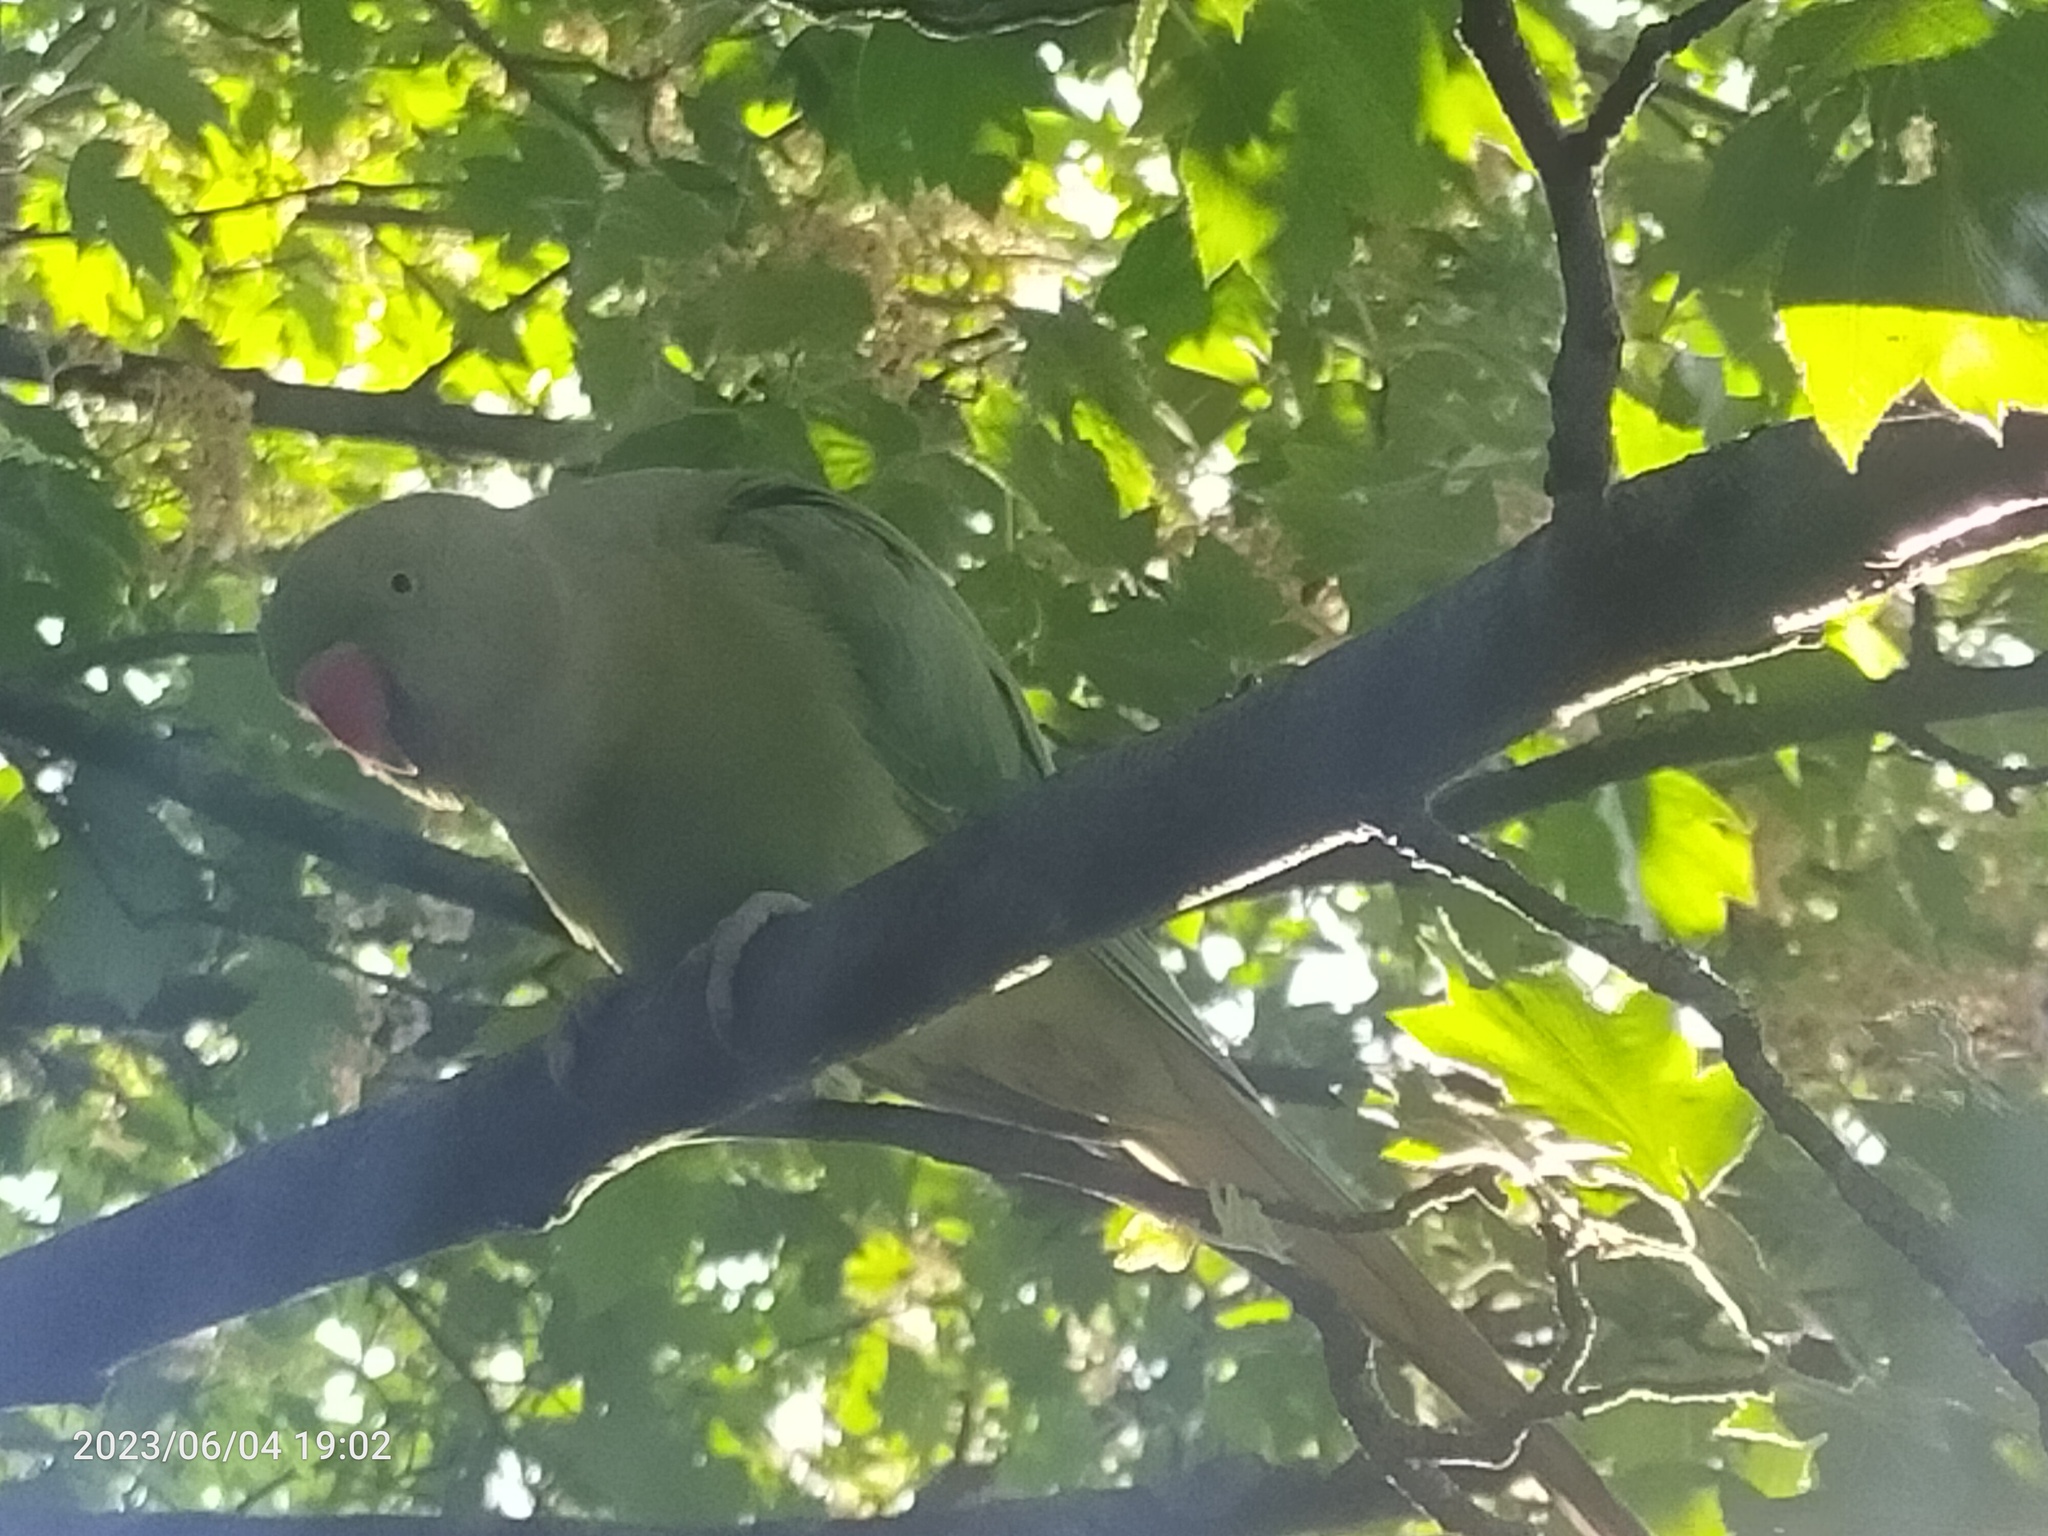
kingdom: Animalia
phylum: Chordata
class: Aves
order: Psittaciformes
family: Psittacidae
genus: Psittacula
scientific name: Psittacula krameri
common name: Rose-ringed parakeet
